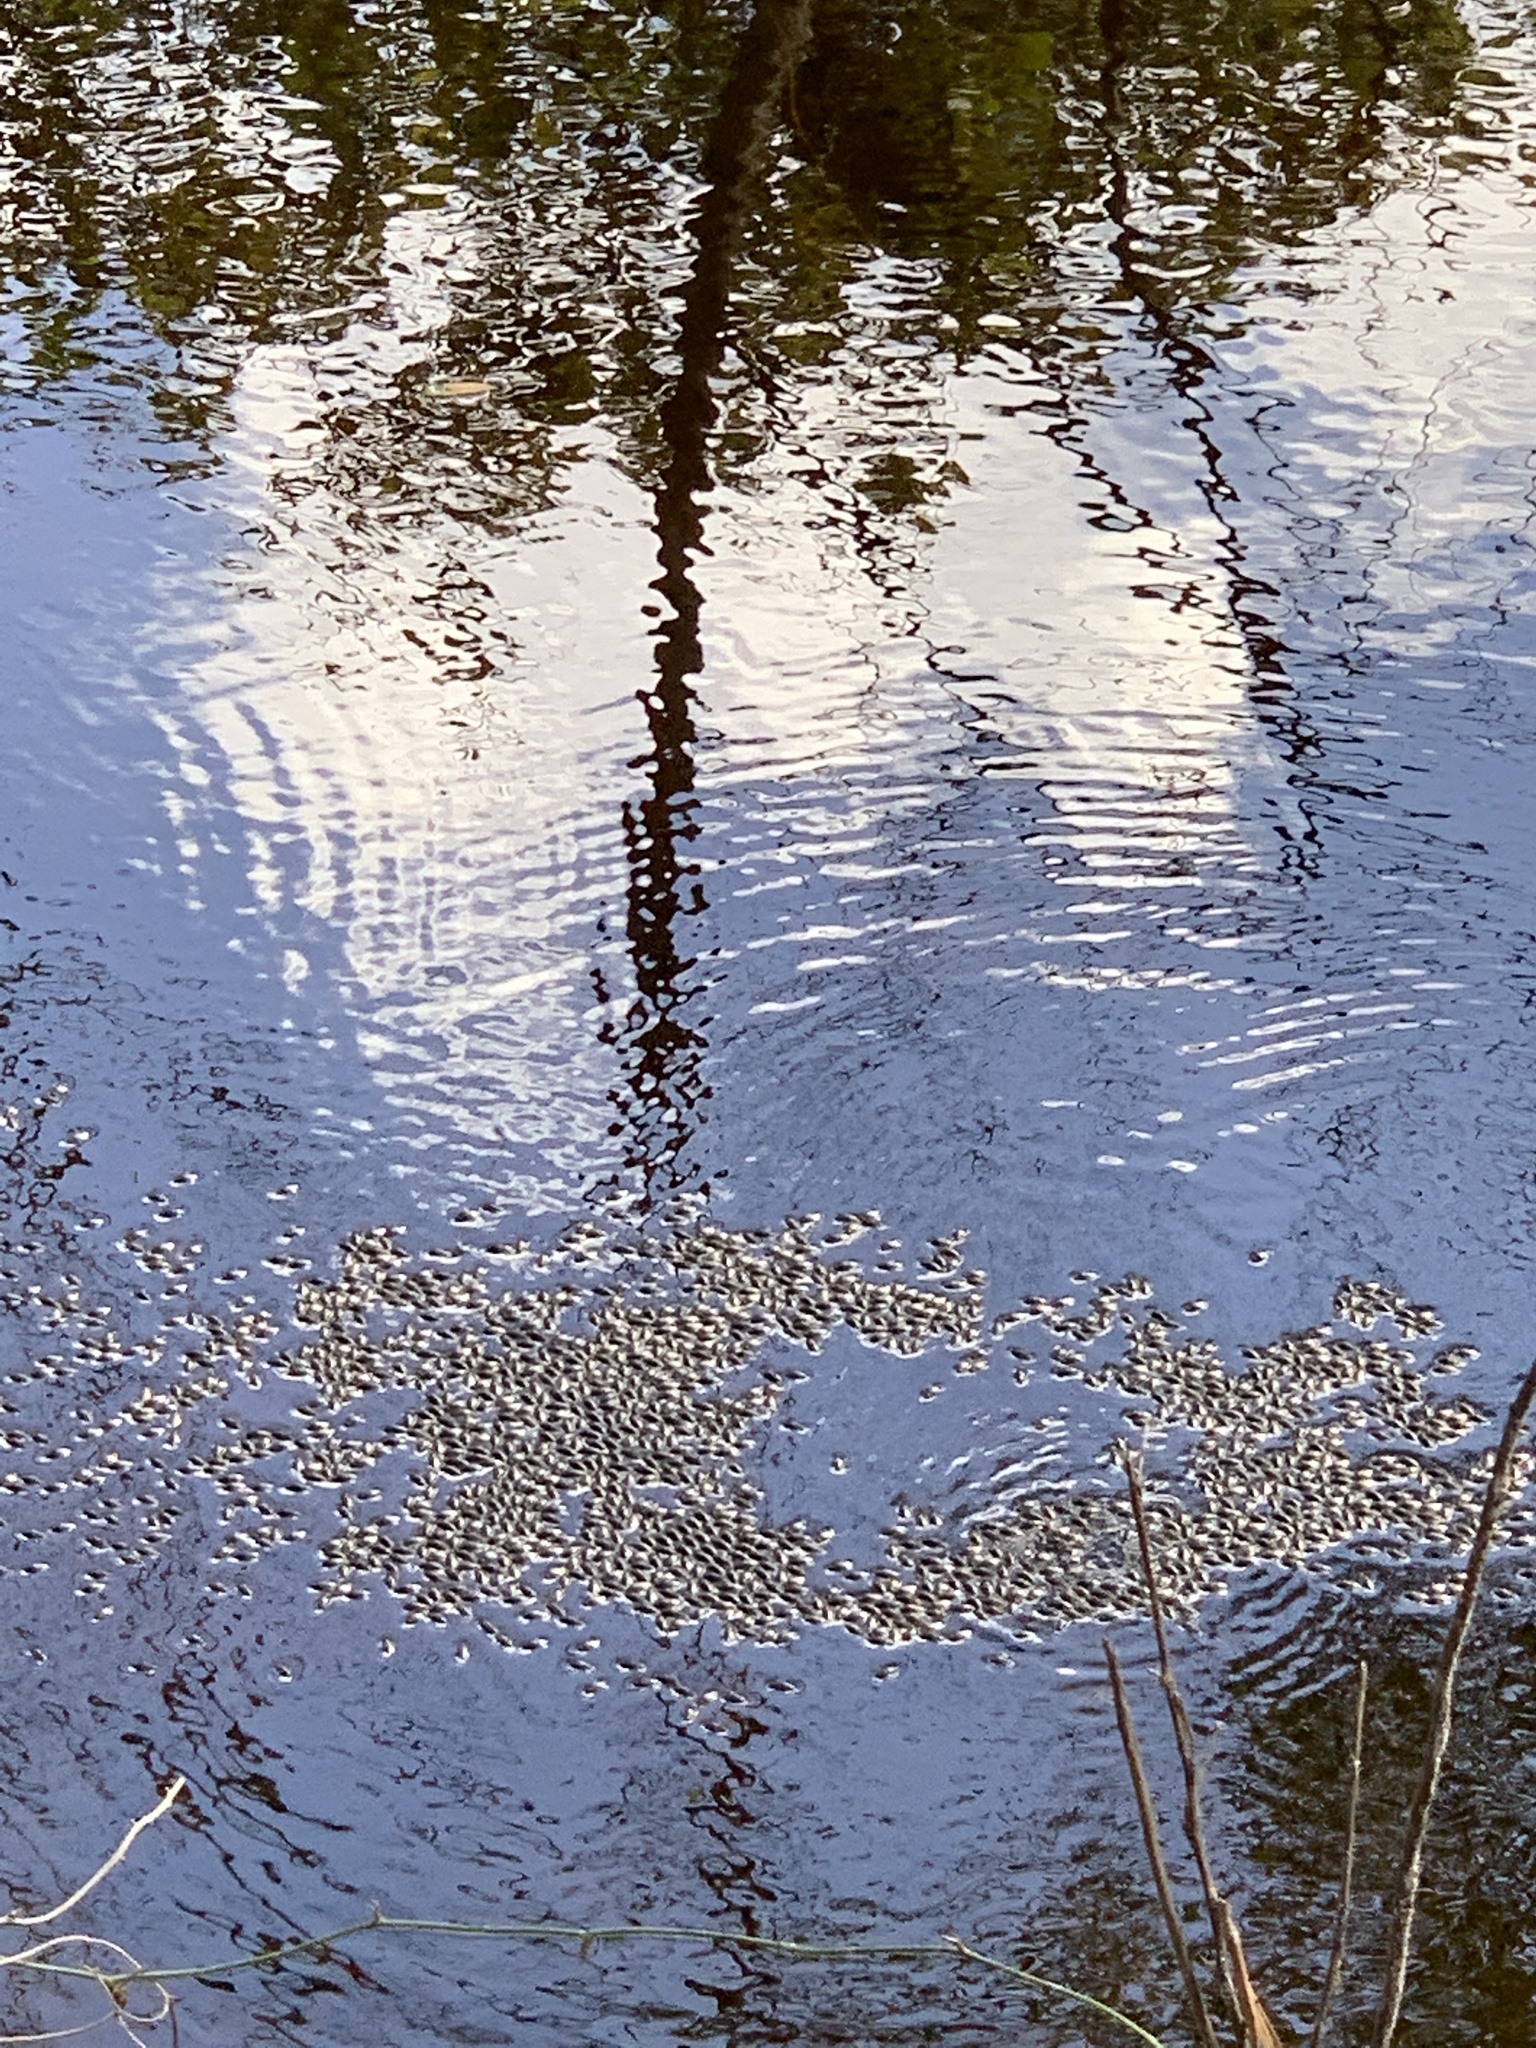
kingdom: Animalia
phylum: Arthropoda
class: Insecta
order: Coleoptera
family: Gyrinidae
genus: Dineutus
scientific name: Dineutus
